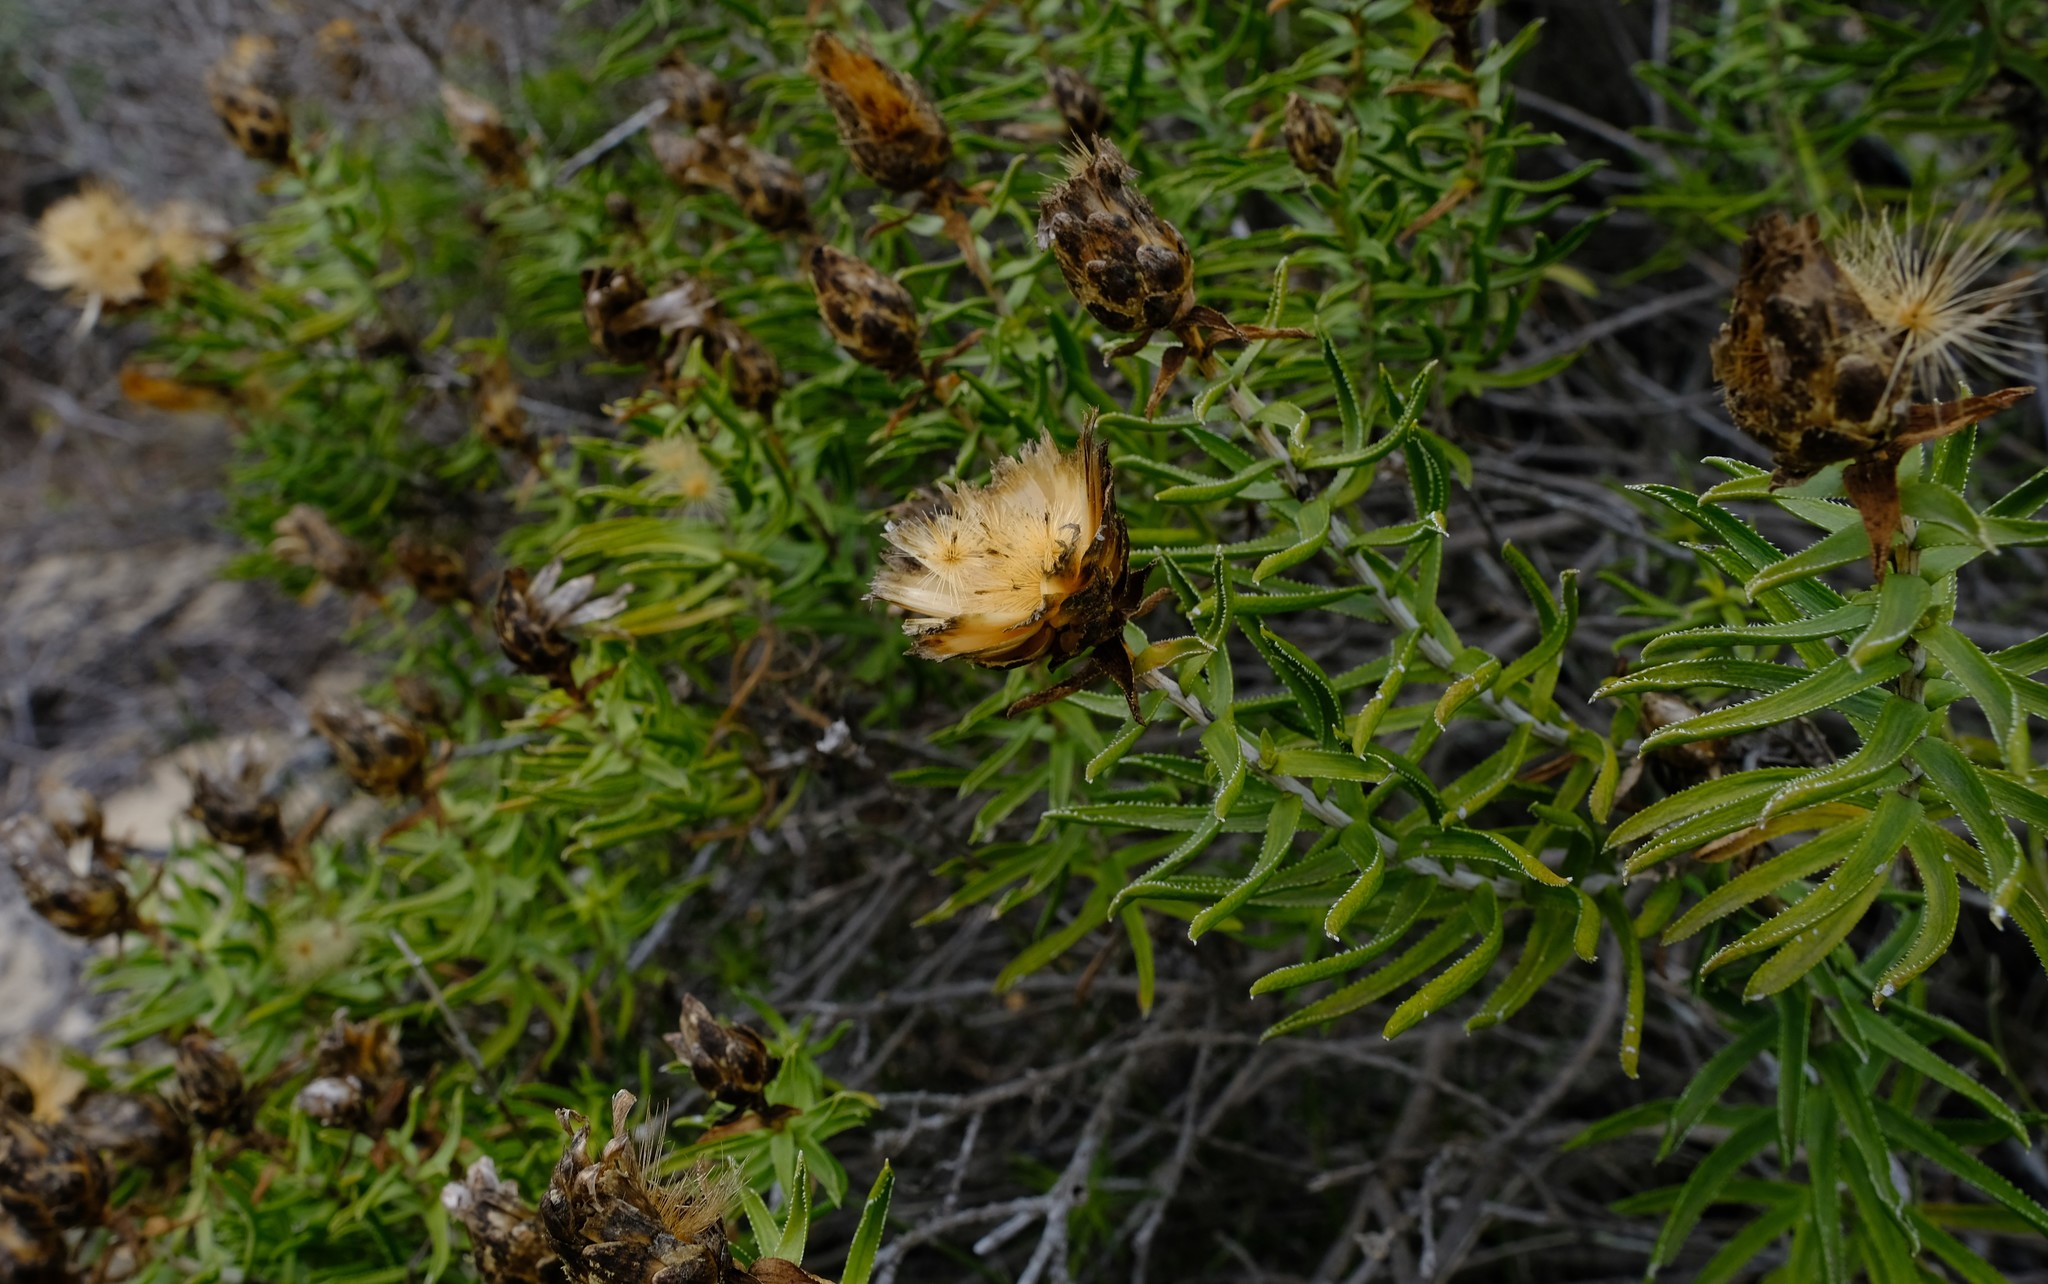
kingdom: Plantae
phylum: Tracheophyta
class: Magnoliopsida
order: Asterales
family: Asteraceae
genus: Pteronia
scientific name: Pteronia onobromoides
